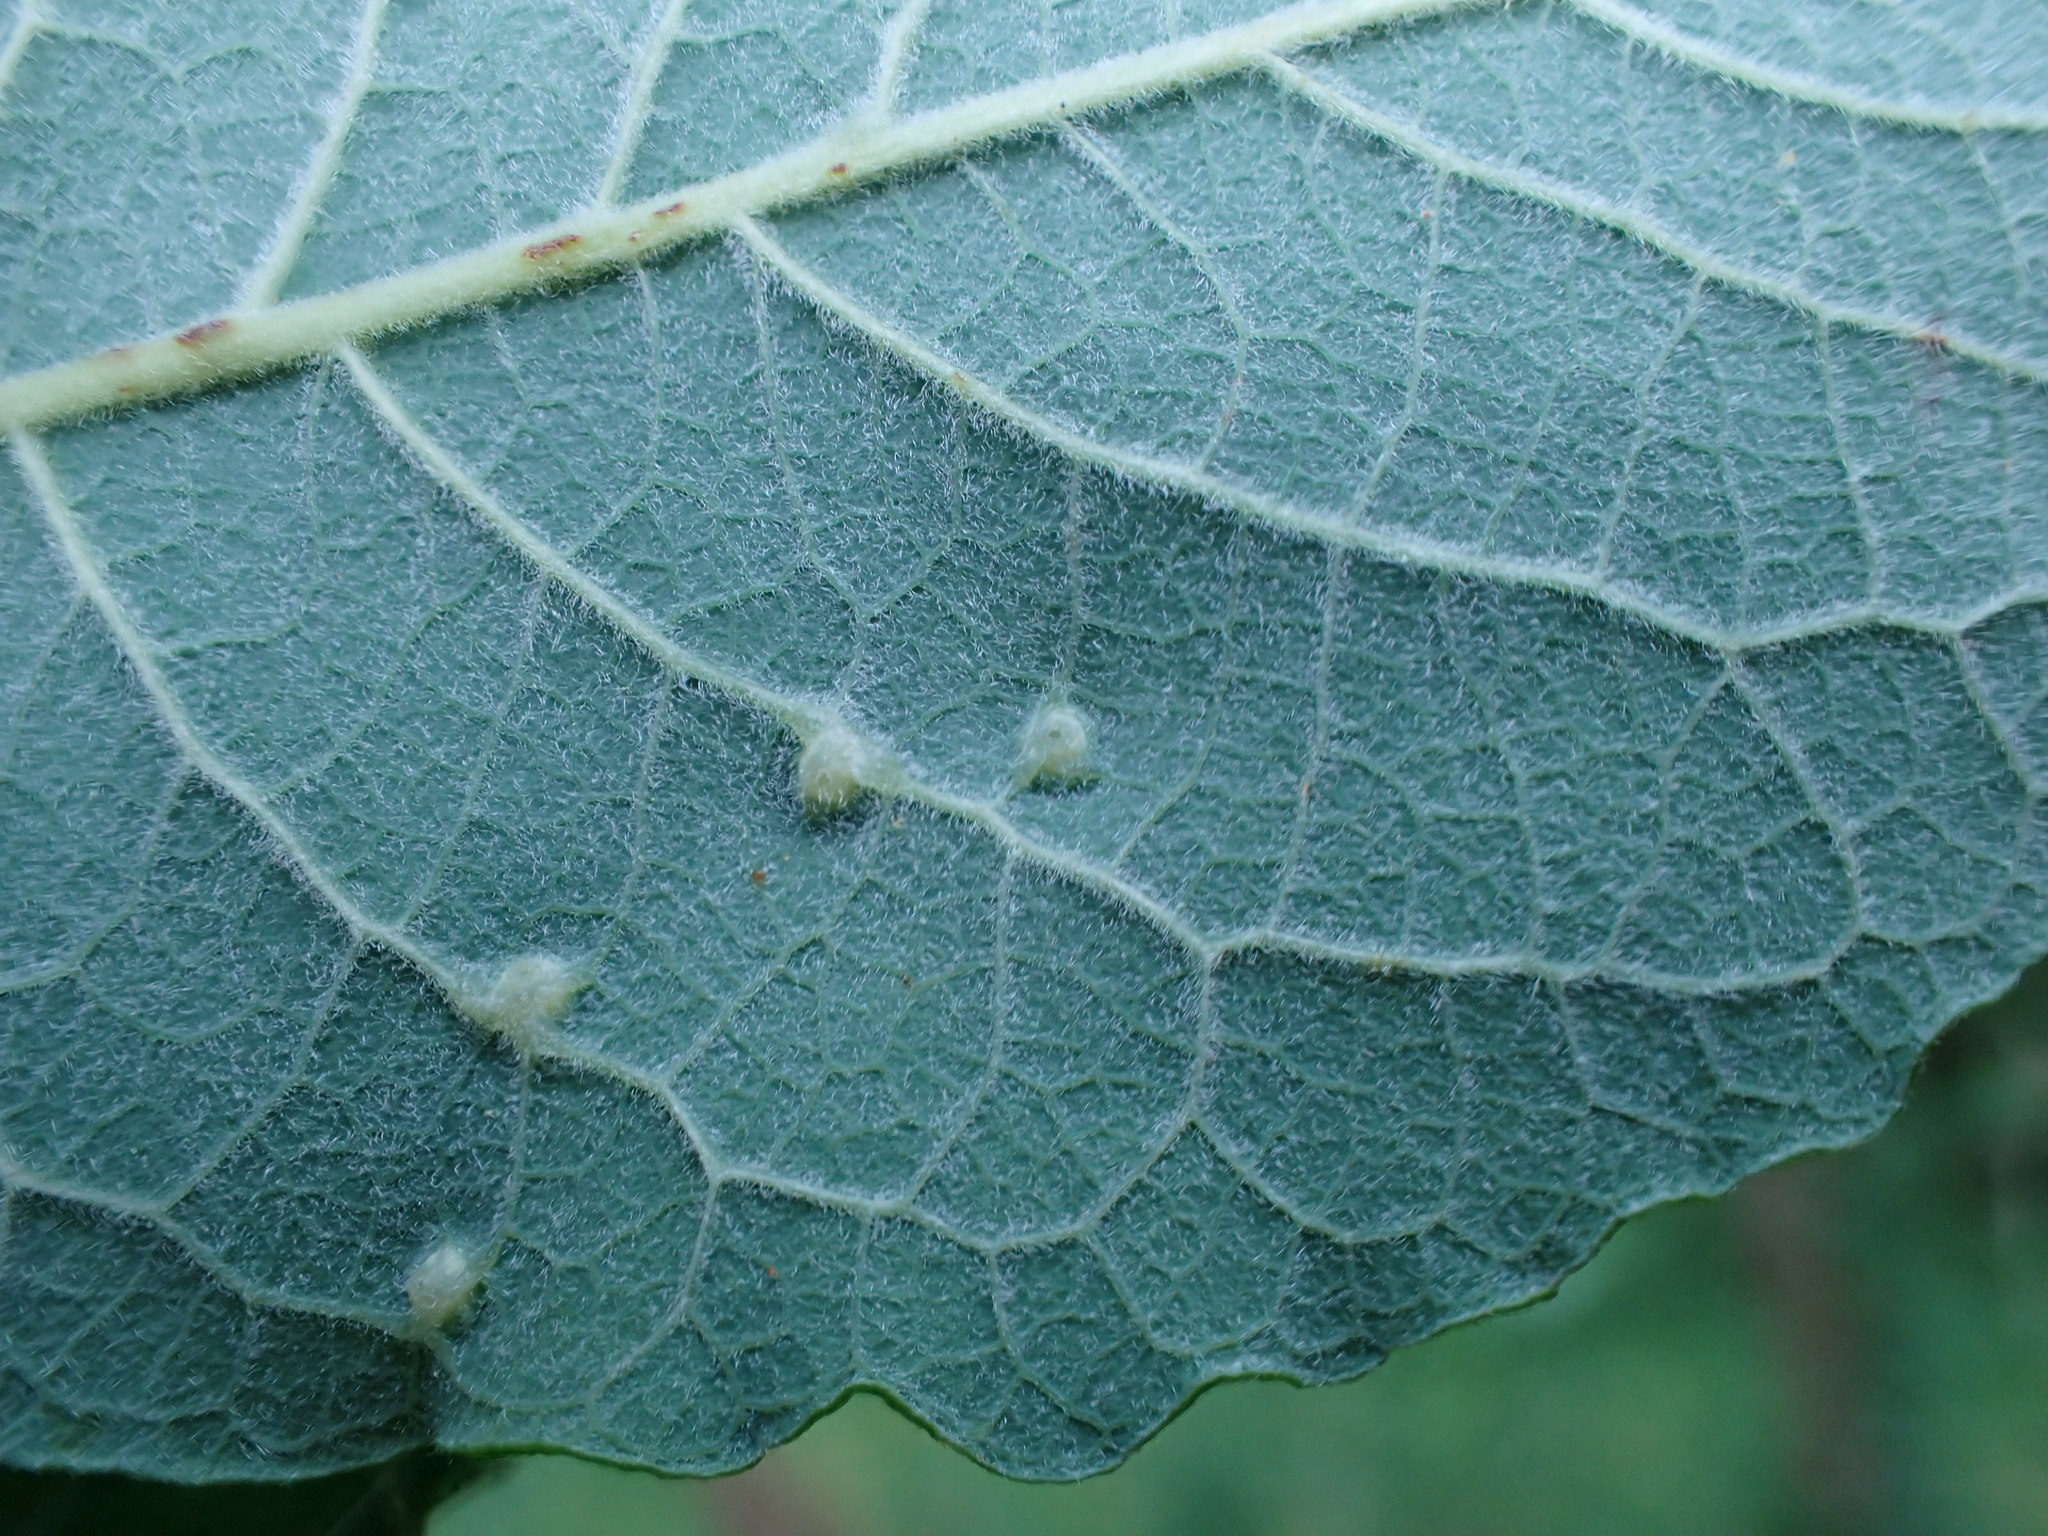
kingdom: Animalia
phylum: Arthropoda
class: Insecta
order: Diptera
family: Cecidomyiidae
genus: Iteomyia
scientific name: Iteomyia capreae
